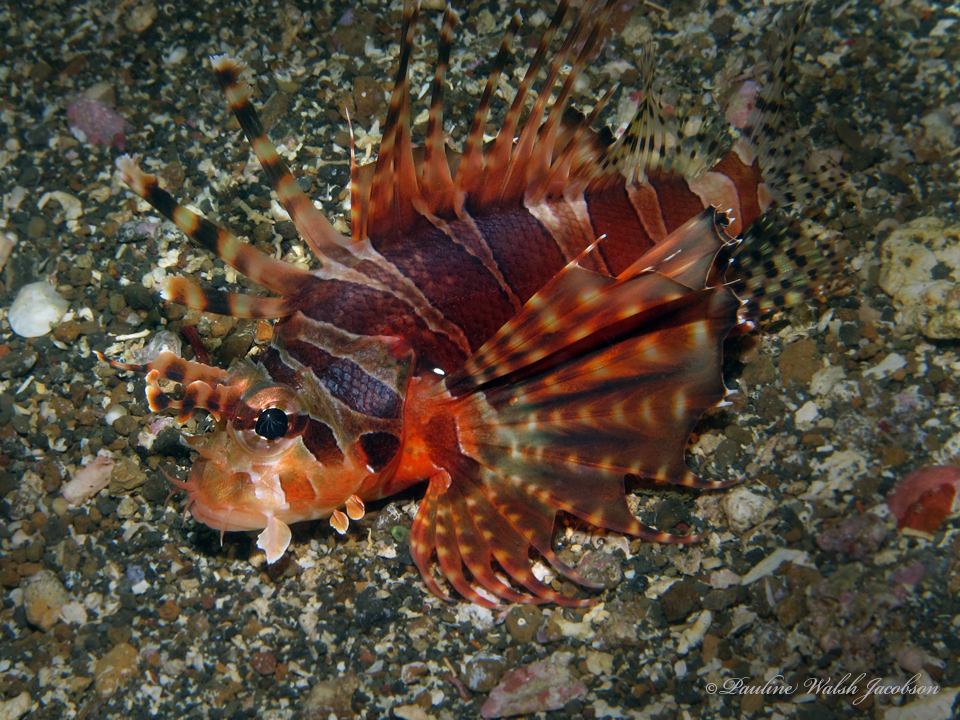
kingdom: Animalia
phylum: Chordata
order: Scorpaeniformes
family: Scorpaenidae
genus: Dendrochirus
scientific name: Dendrochirus zebra
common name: Zebra lionfish
